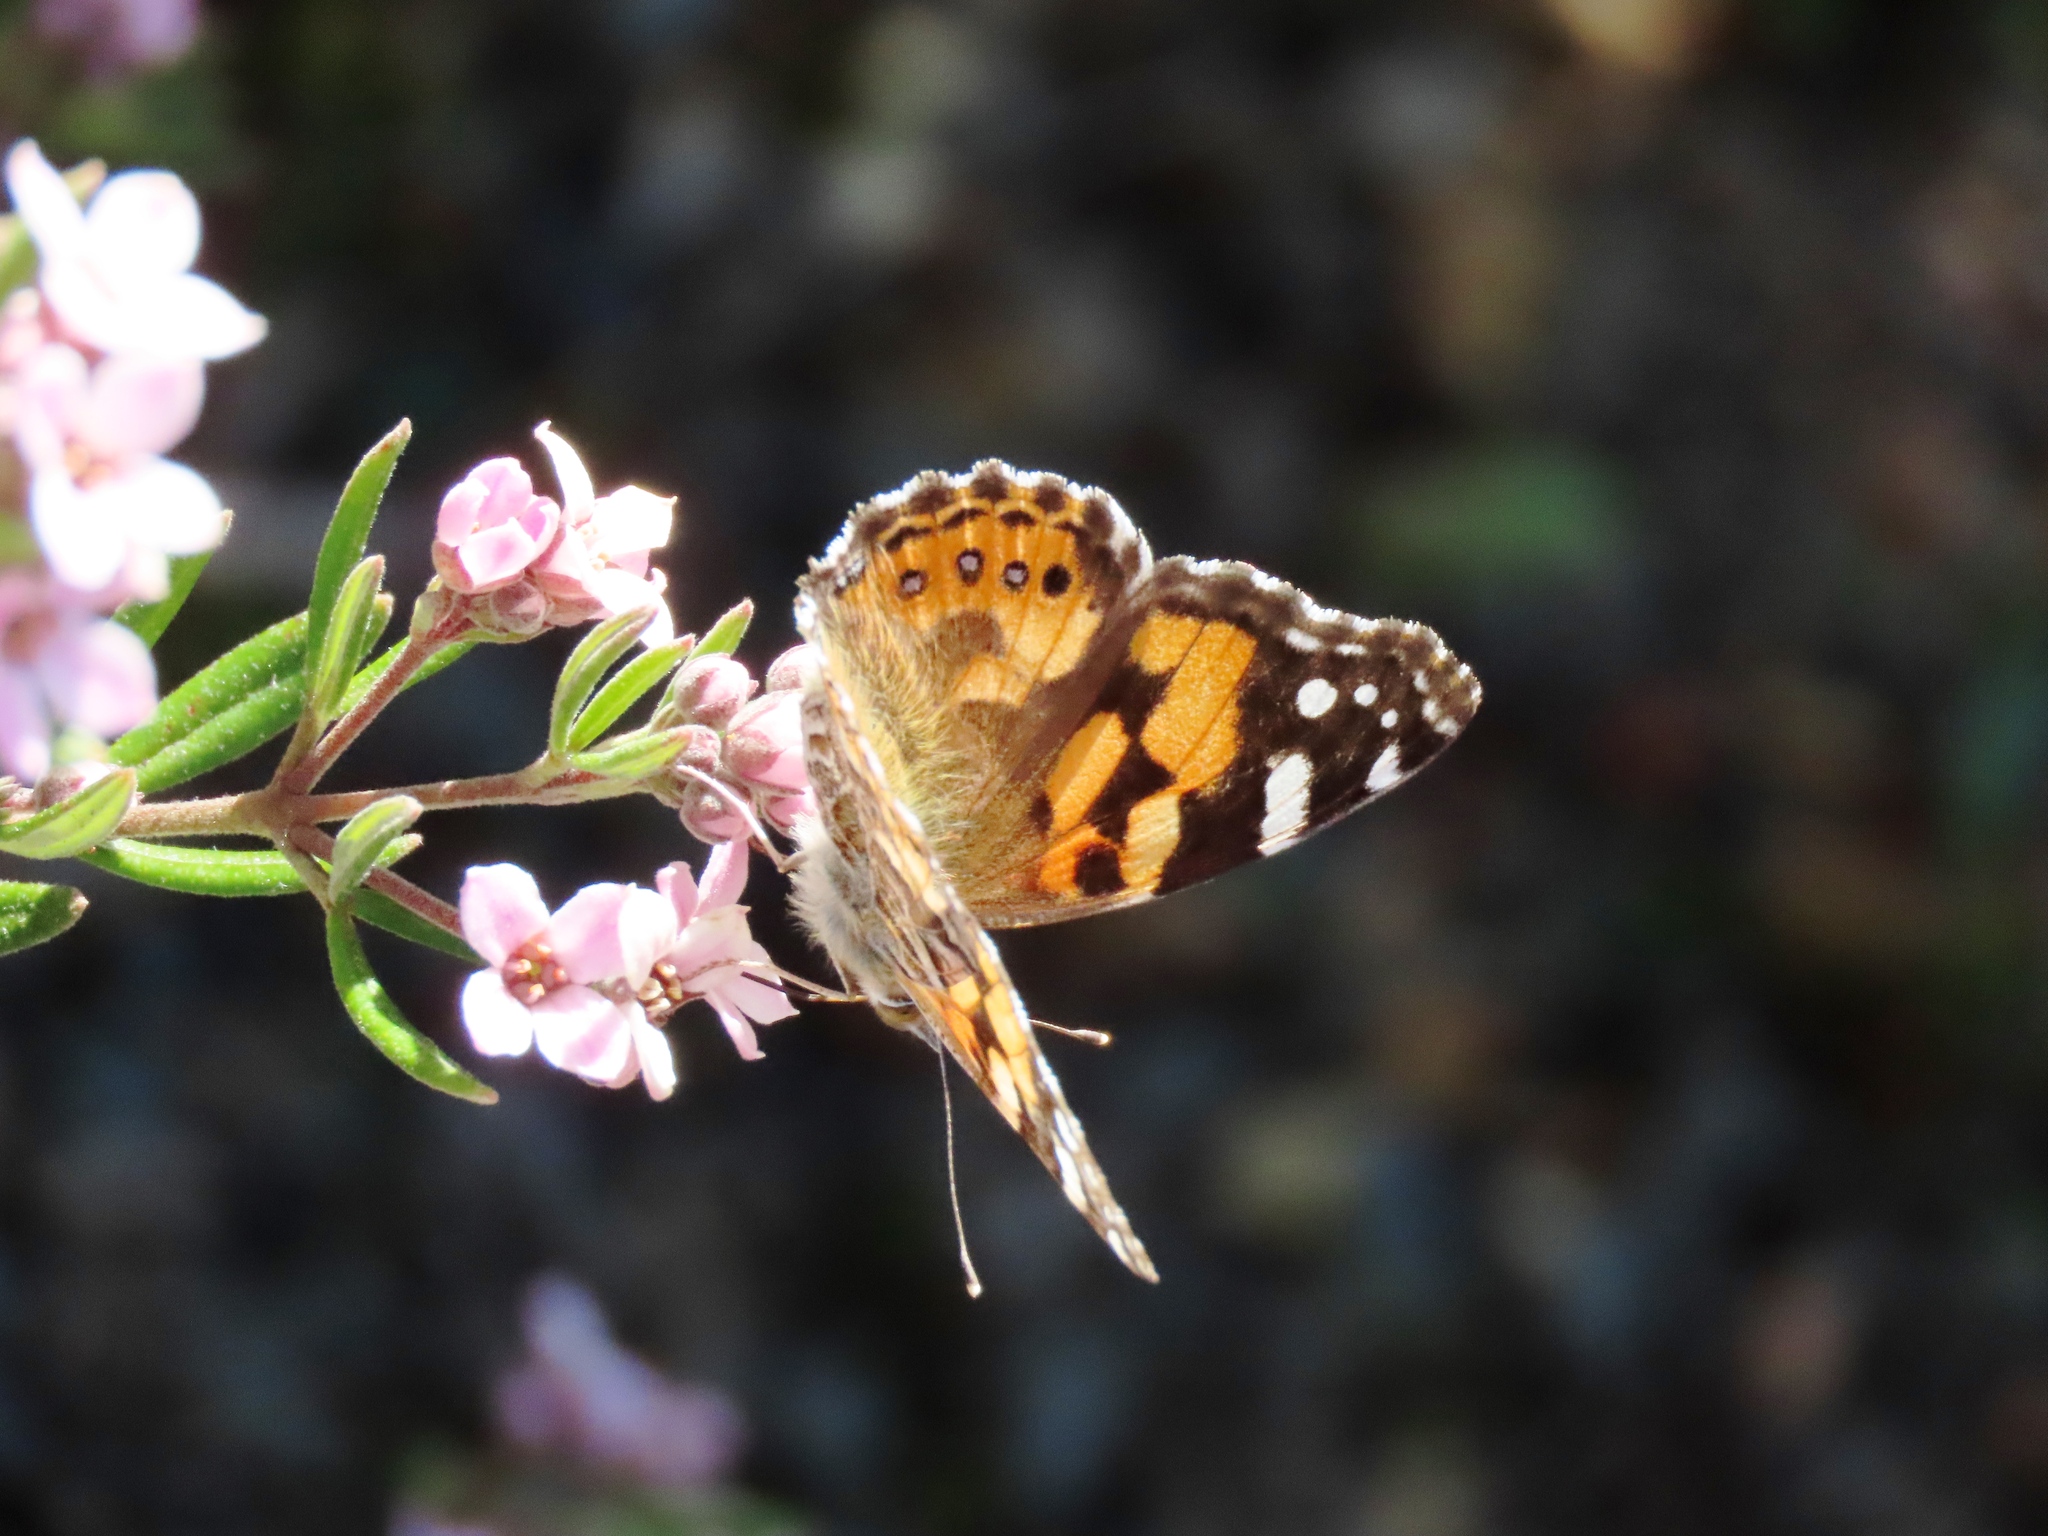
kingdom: Animalia
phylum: Arthropoda
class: Insecta
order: Lepidoptera
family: Nymphalidae
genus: Vanessa
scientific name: Vanessa kershawi
